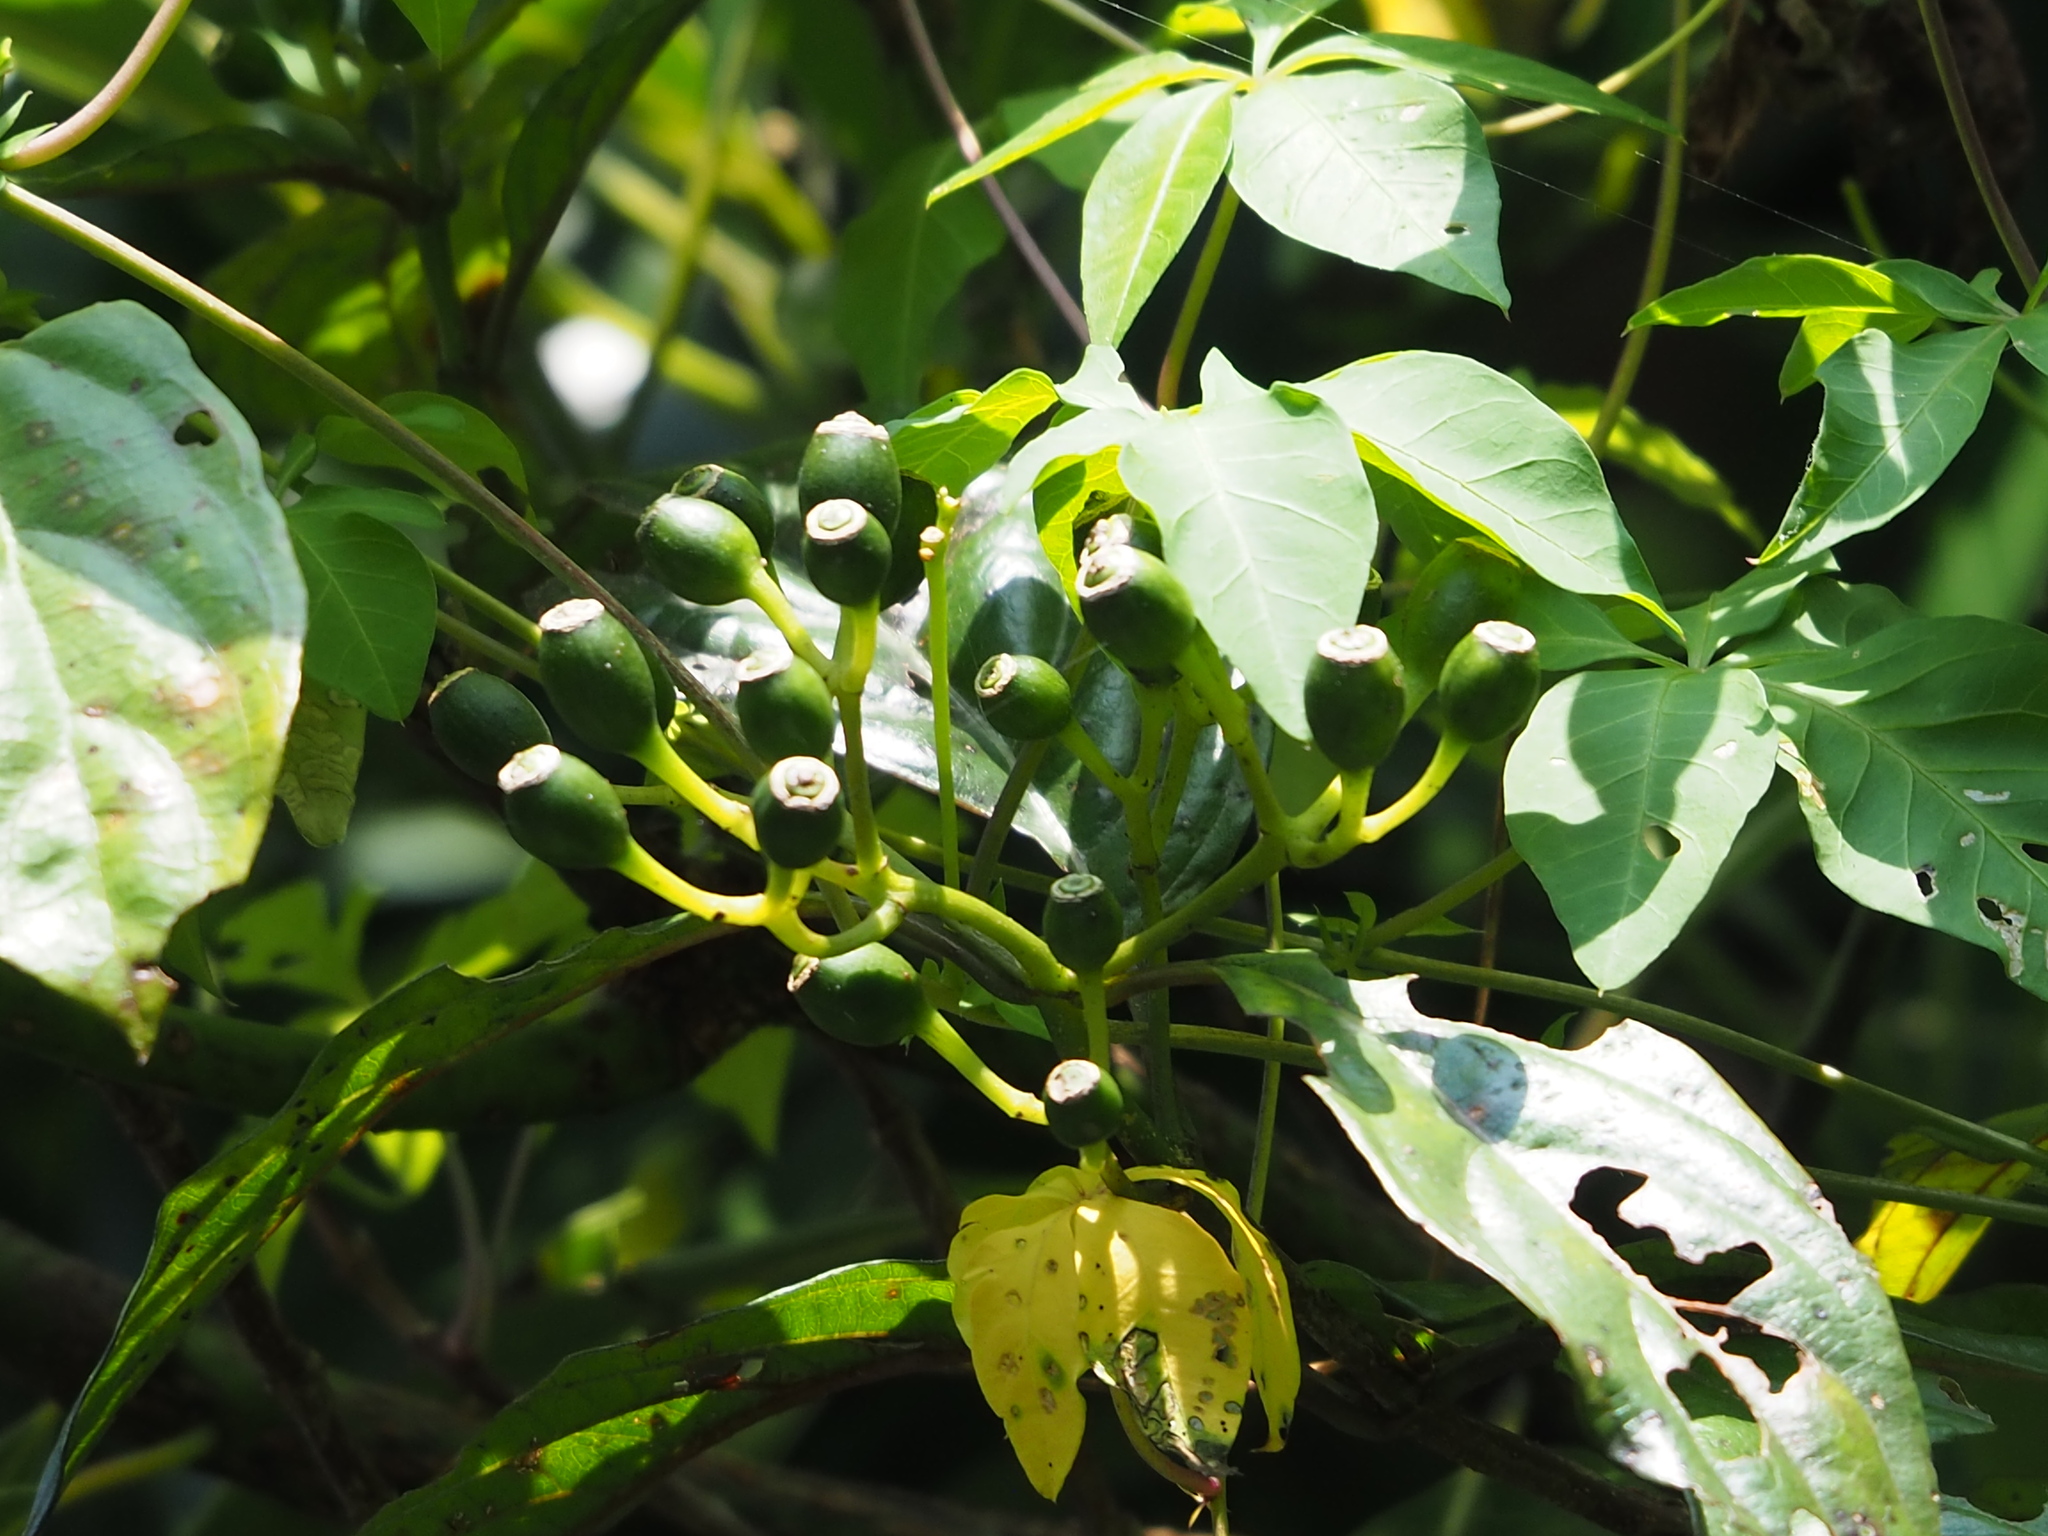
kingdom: Plantae
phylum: Tracheophyta
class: Magnoliopsida
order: Gentianales
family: Rubiaceae
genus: Mussaenda
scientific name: Mussaenda parviflora
